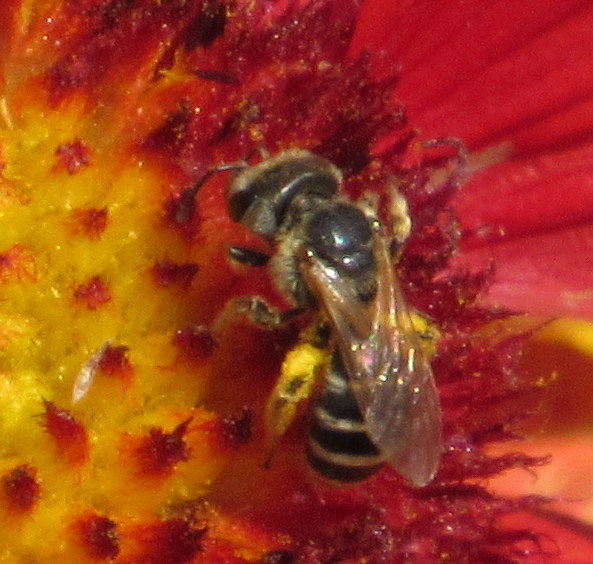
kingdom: Animalia
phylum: Arthropoda
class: Insecta
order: Hymenoptera
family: Halictidae
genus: Halictus
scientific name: Halictus ligatus
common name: Ligated furrow bee
